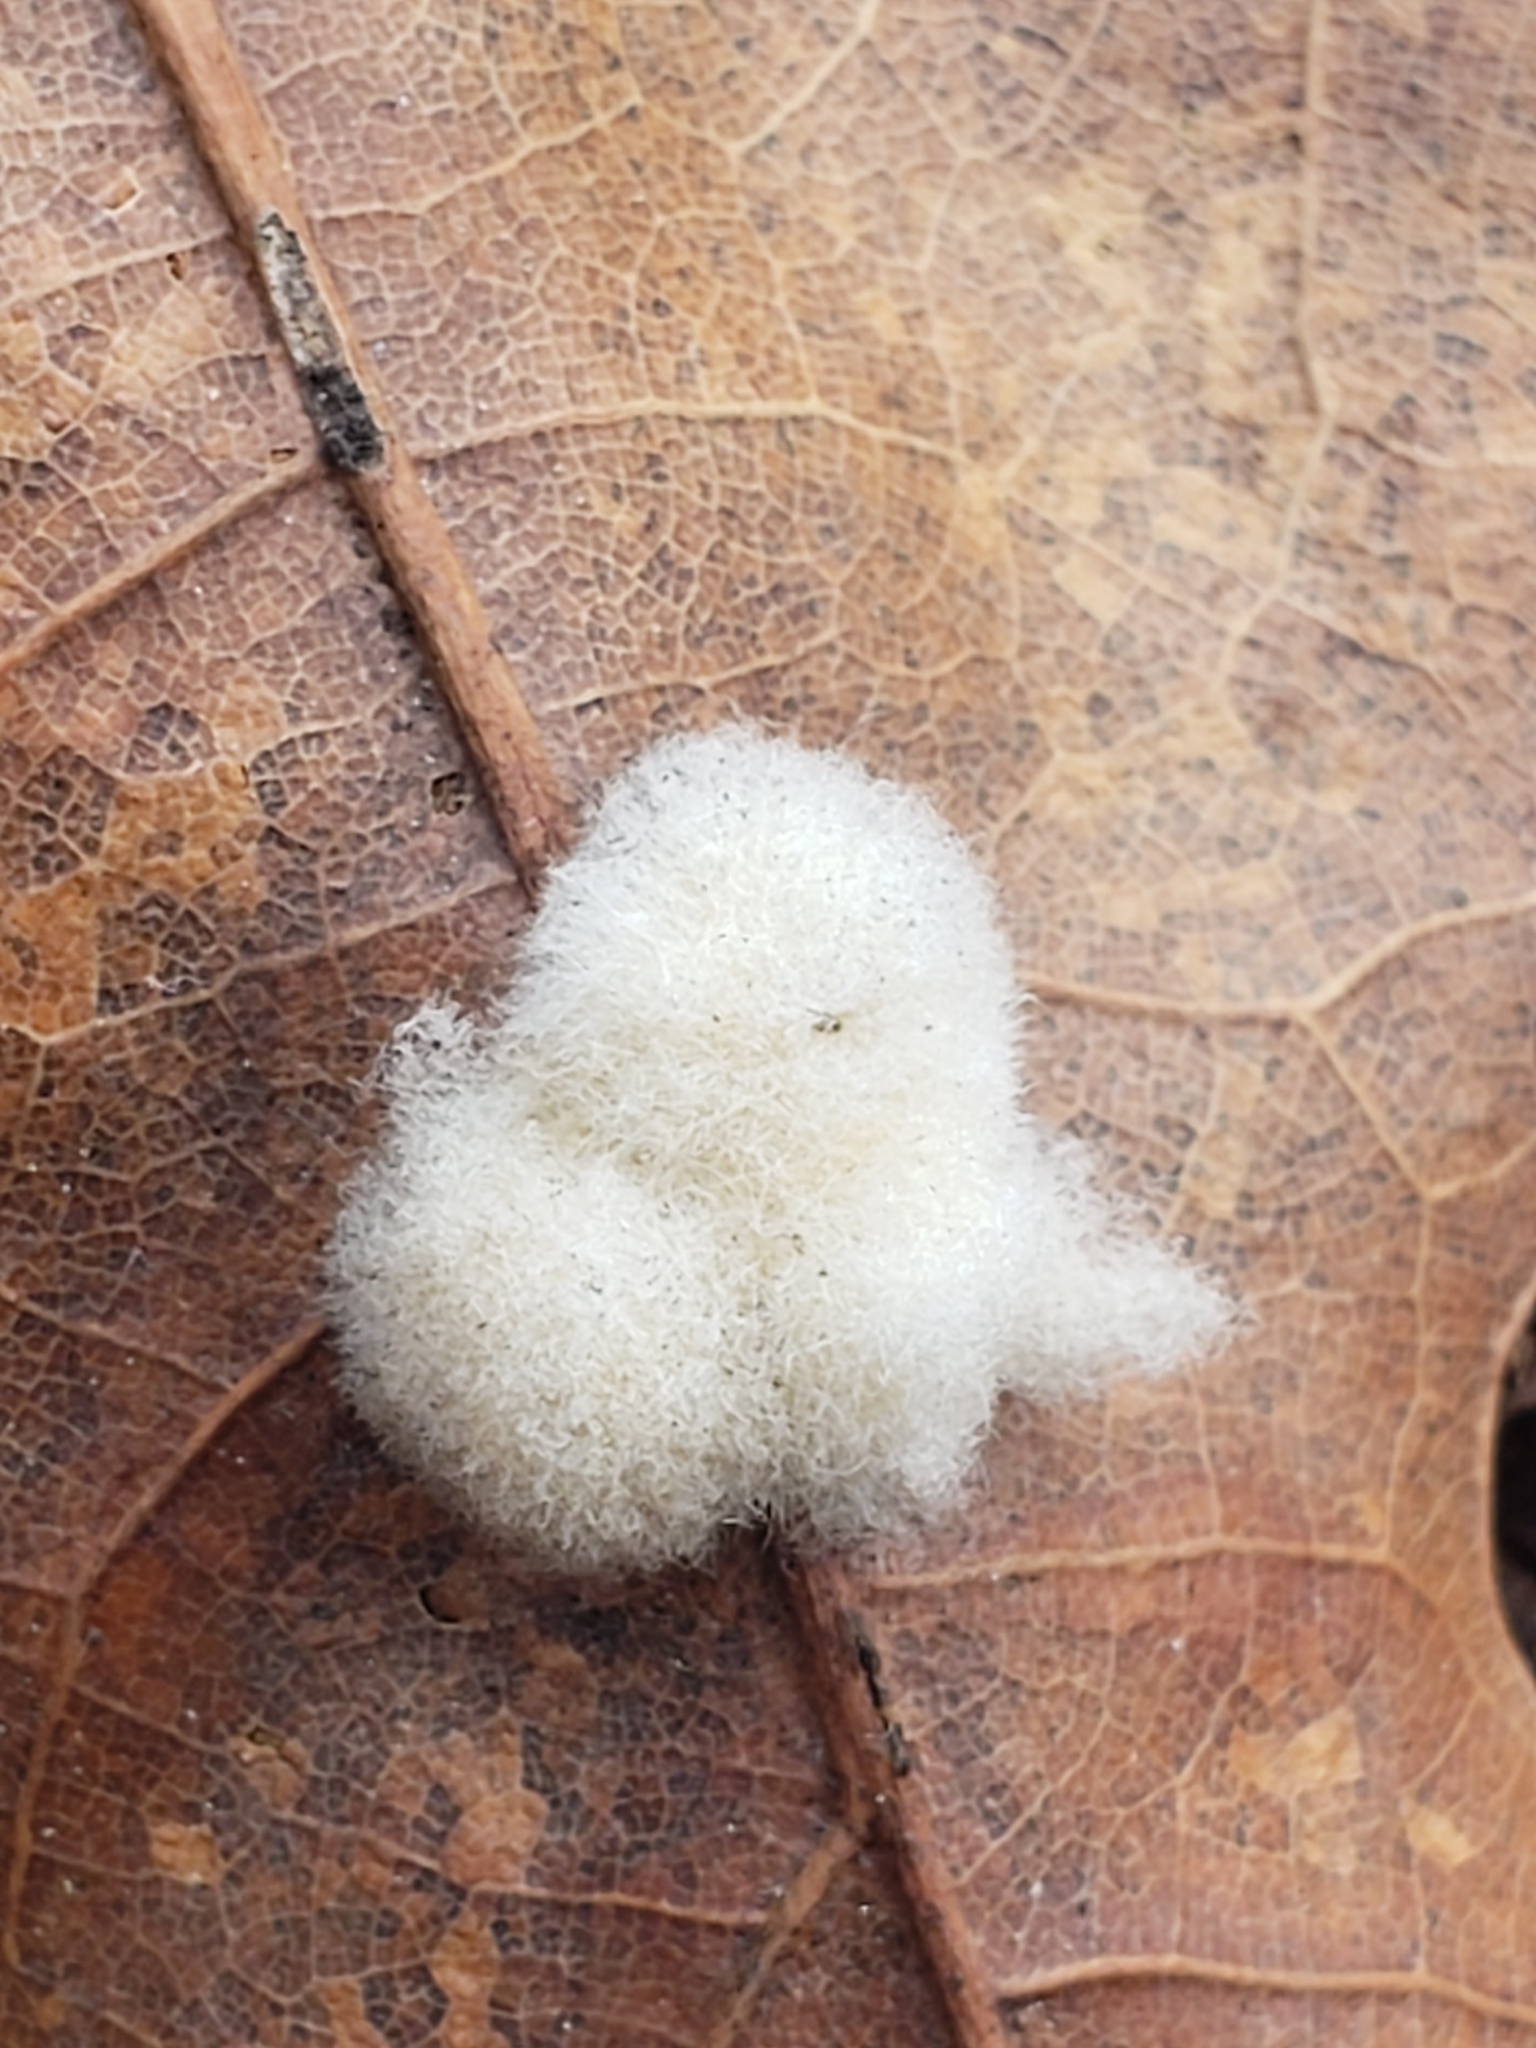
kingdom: Animalia
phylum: Arthropoda
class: Insecta
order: Hymenoptera
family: Cynipidae
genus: Callirhytis
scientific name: Callirhytis
